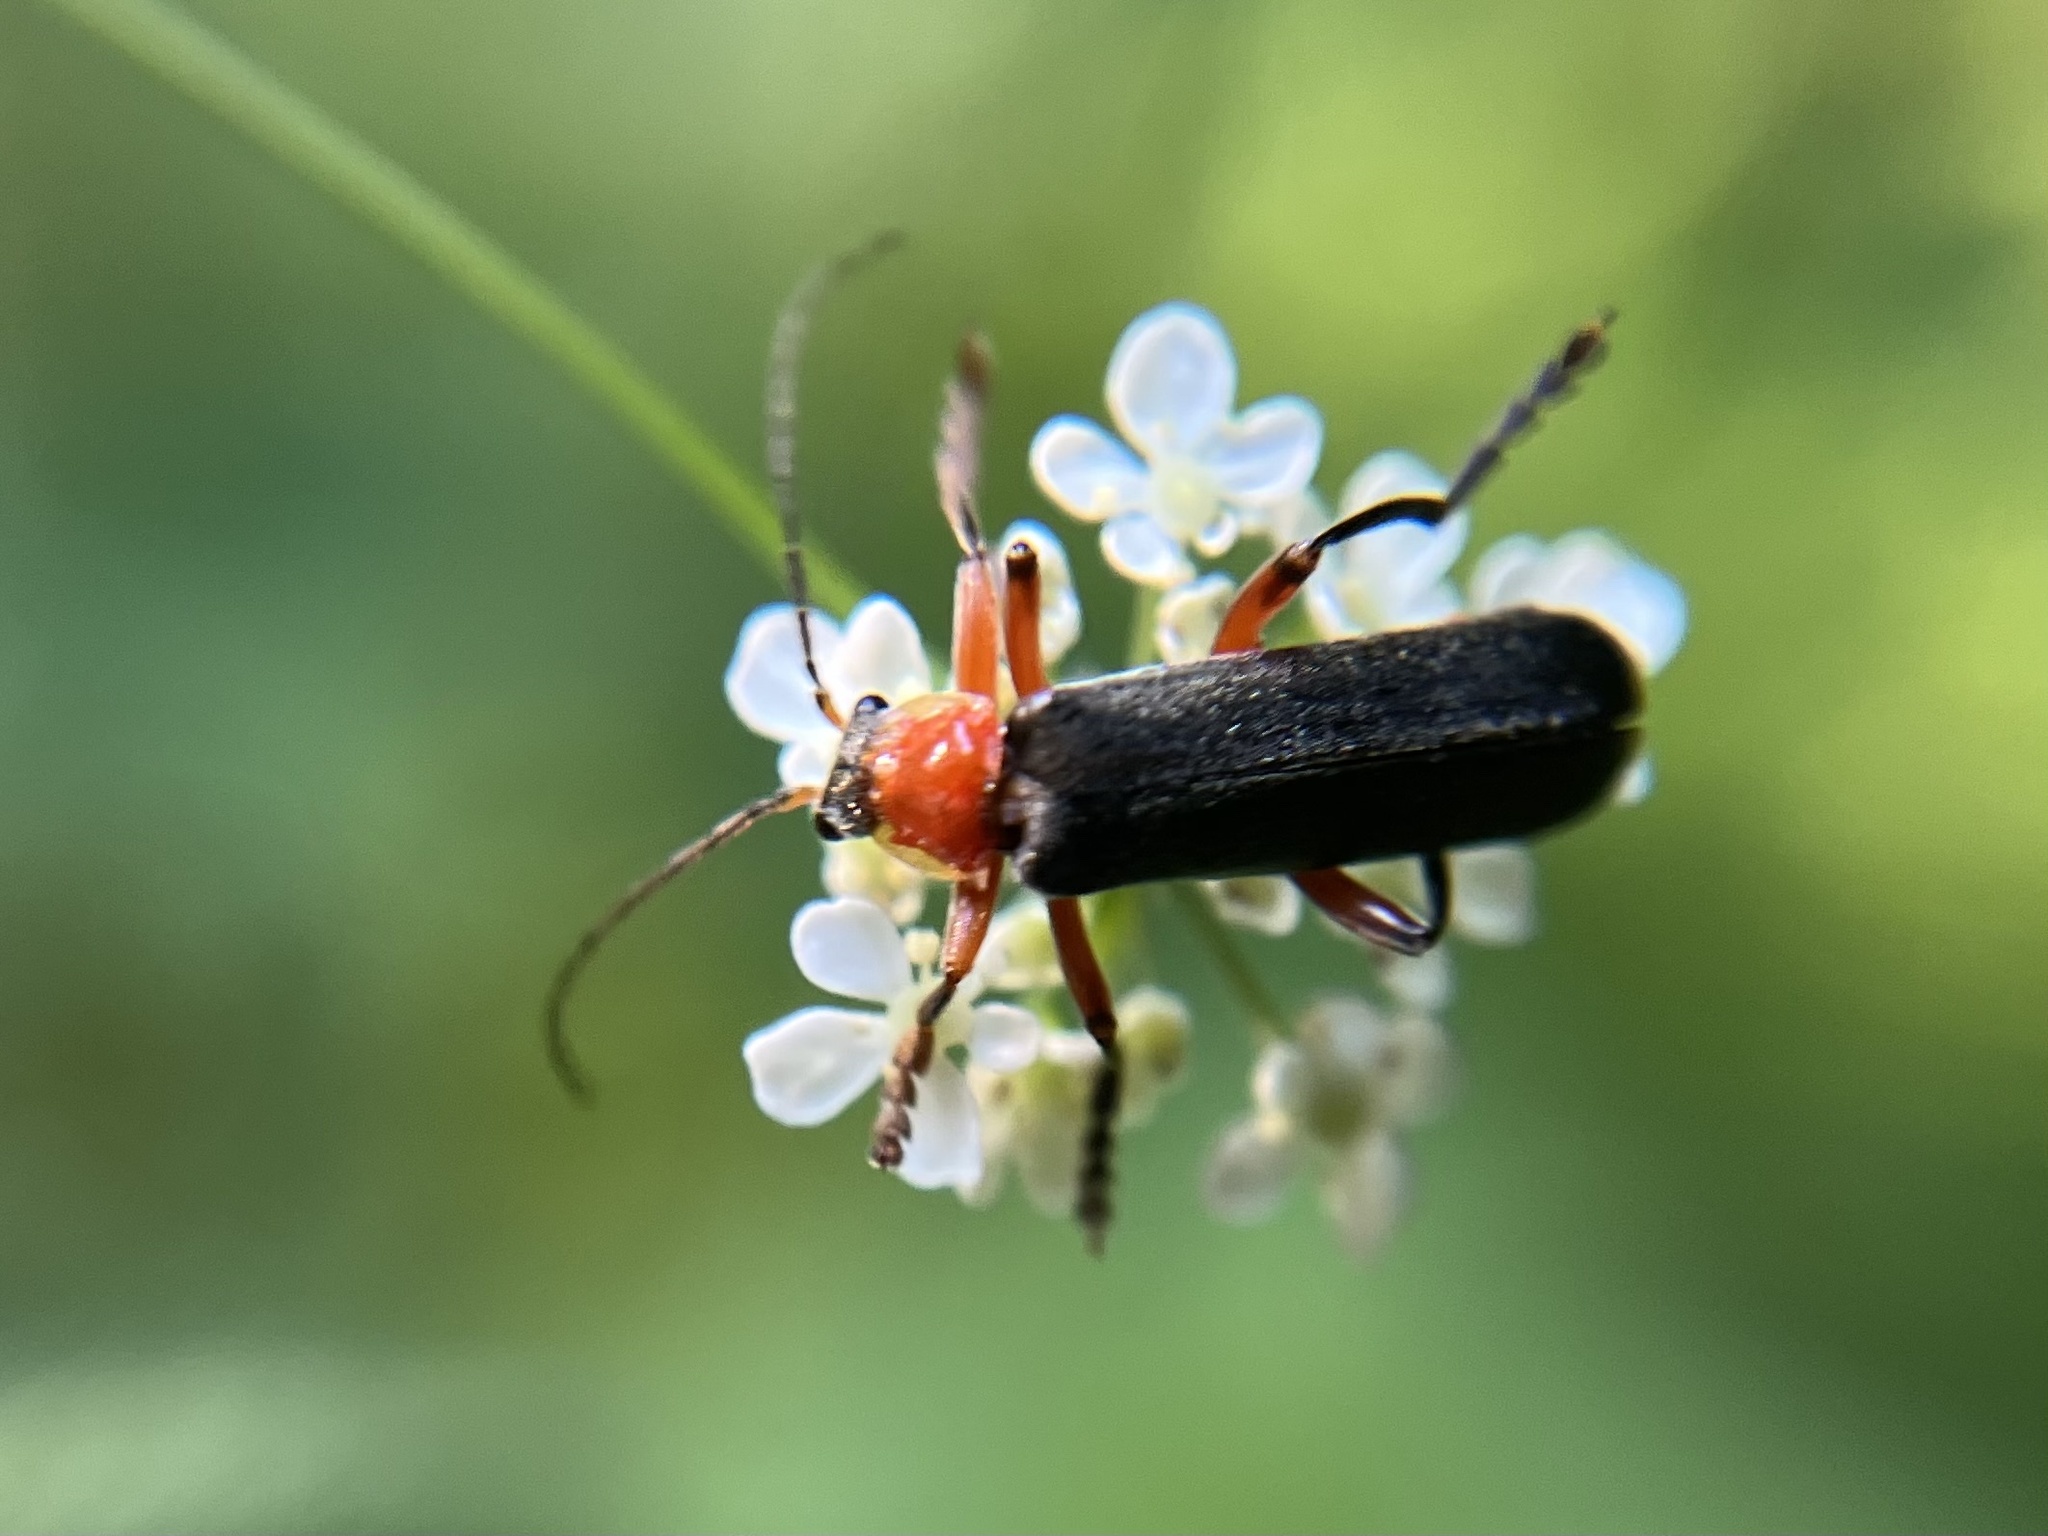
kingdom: Animalia
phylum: Arthropoda
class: Insecta
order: Coleoptera
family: Cantharidae
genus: Cantharis
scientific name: Cantharis pellucida
